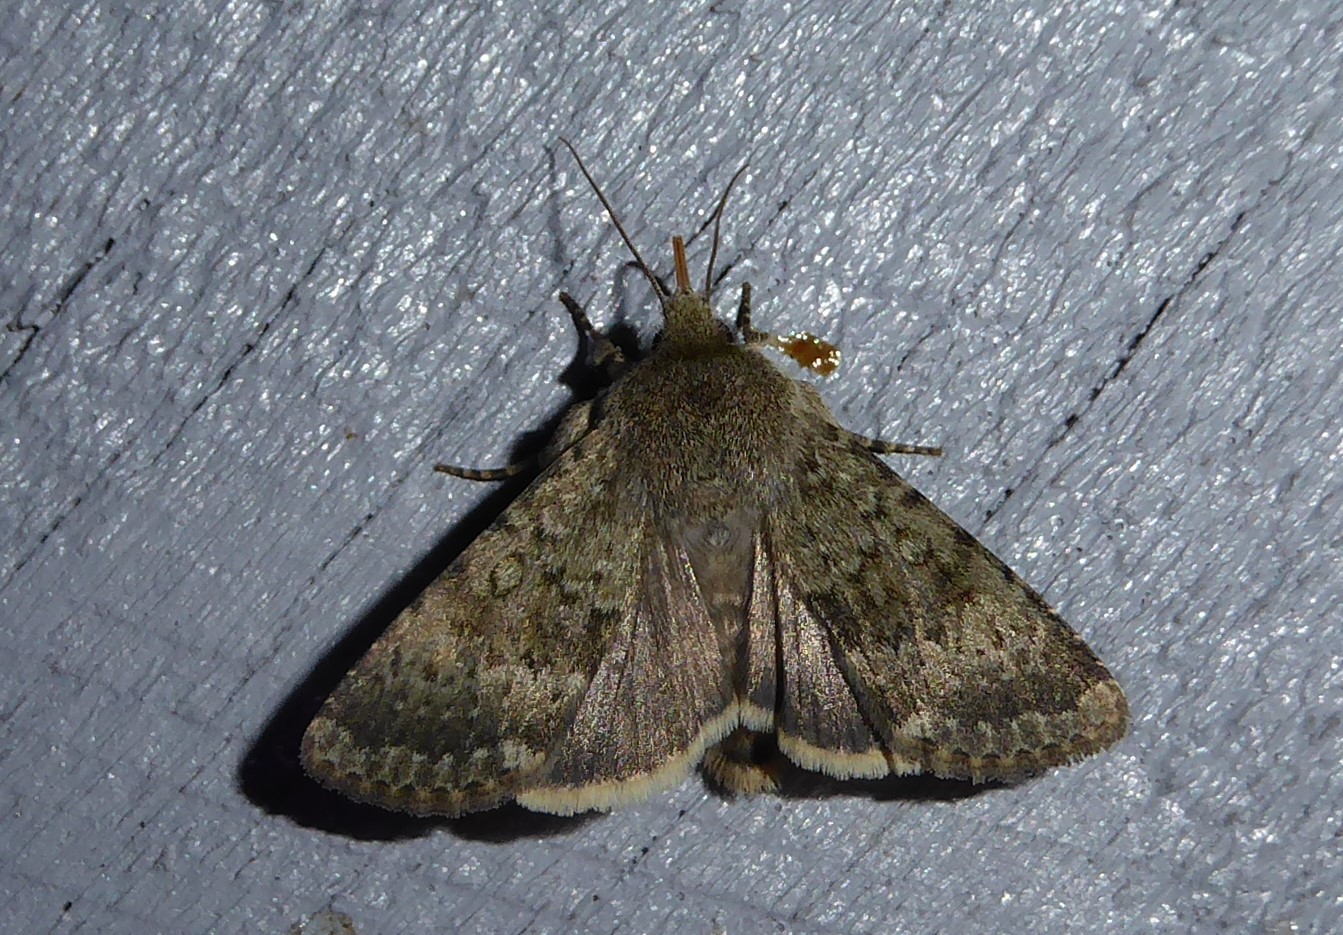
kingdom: Animalia
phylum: Arthropoda
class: Insecta
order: Lepidoptera
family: Noctuidae
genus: Ichneutica
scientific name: Ichneutica moderata
